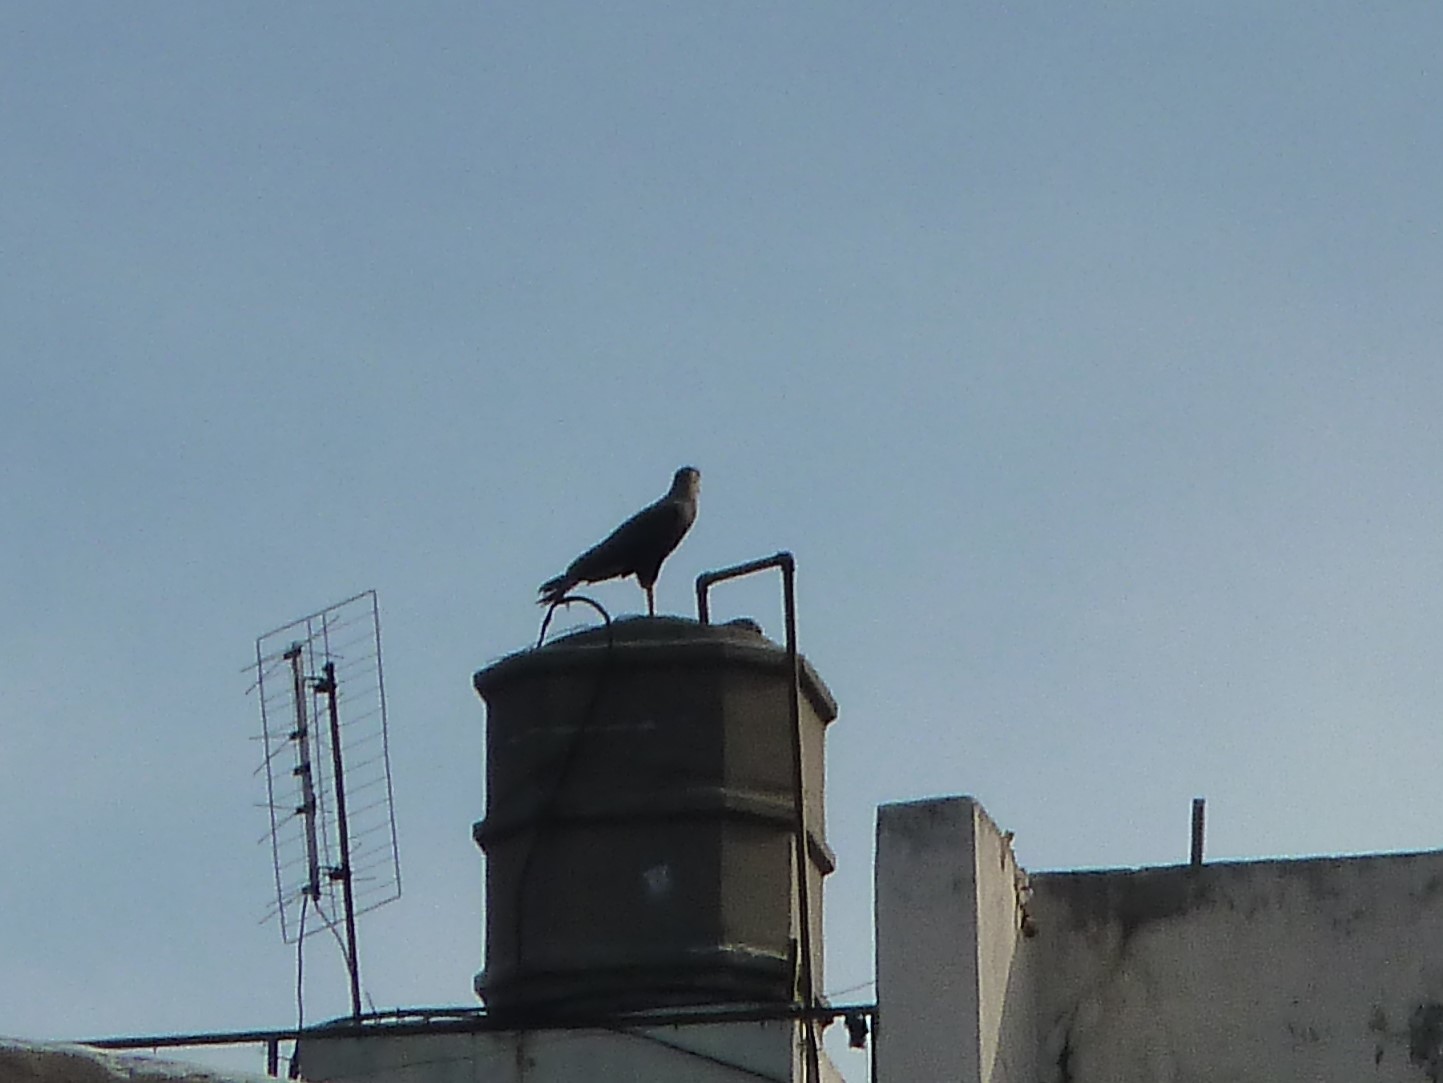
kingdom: Animalia
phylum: Chordata
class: Aves
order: Falconiformes
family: Falconidae
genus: Caracara
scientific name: Caracara plancus
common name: Southern caracara
